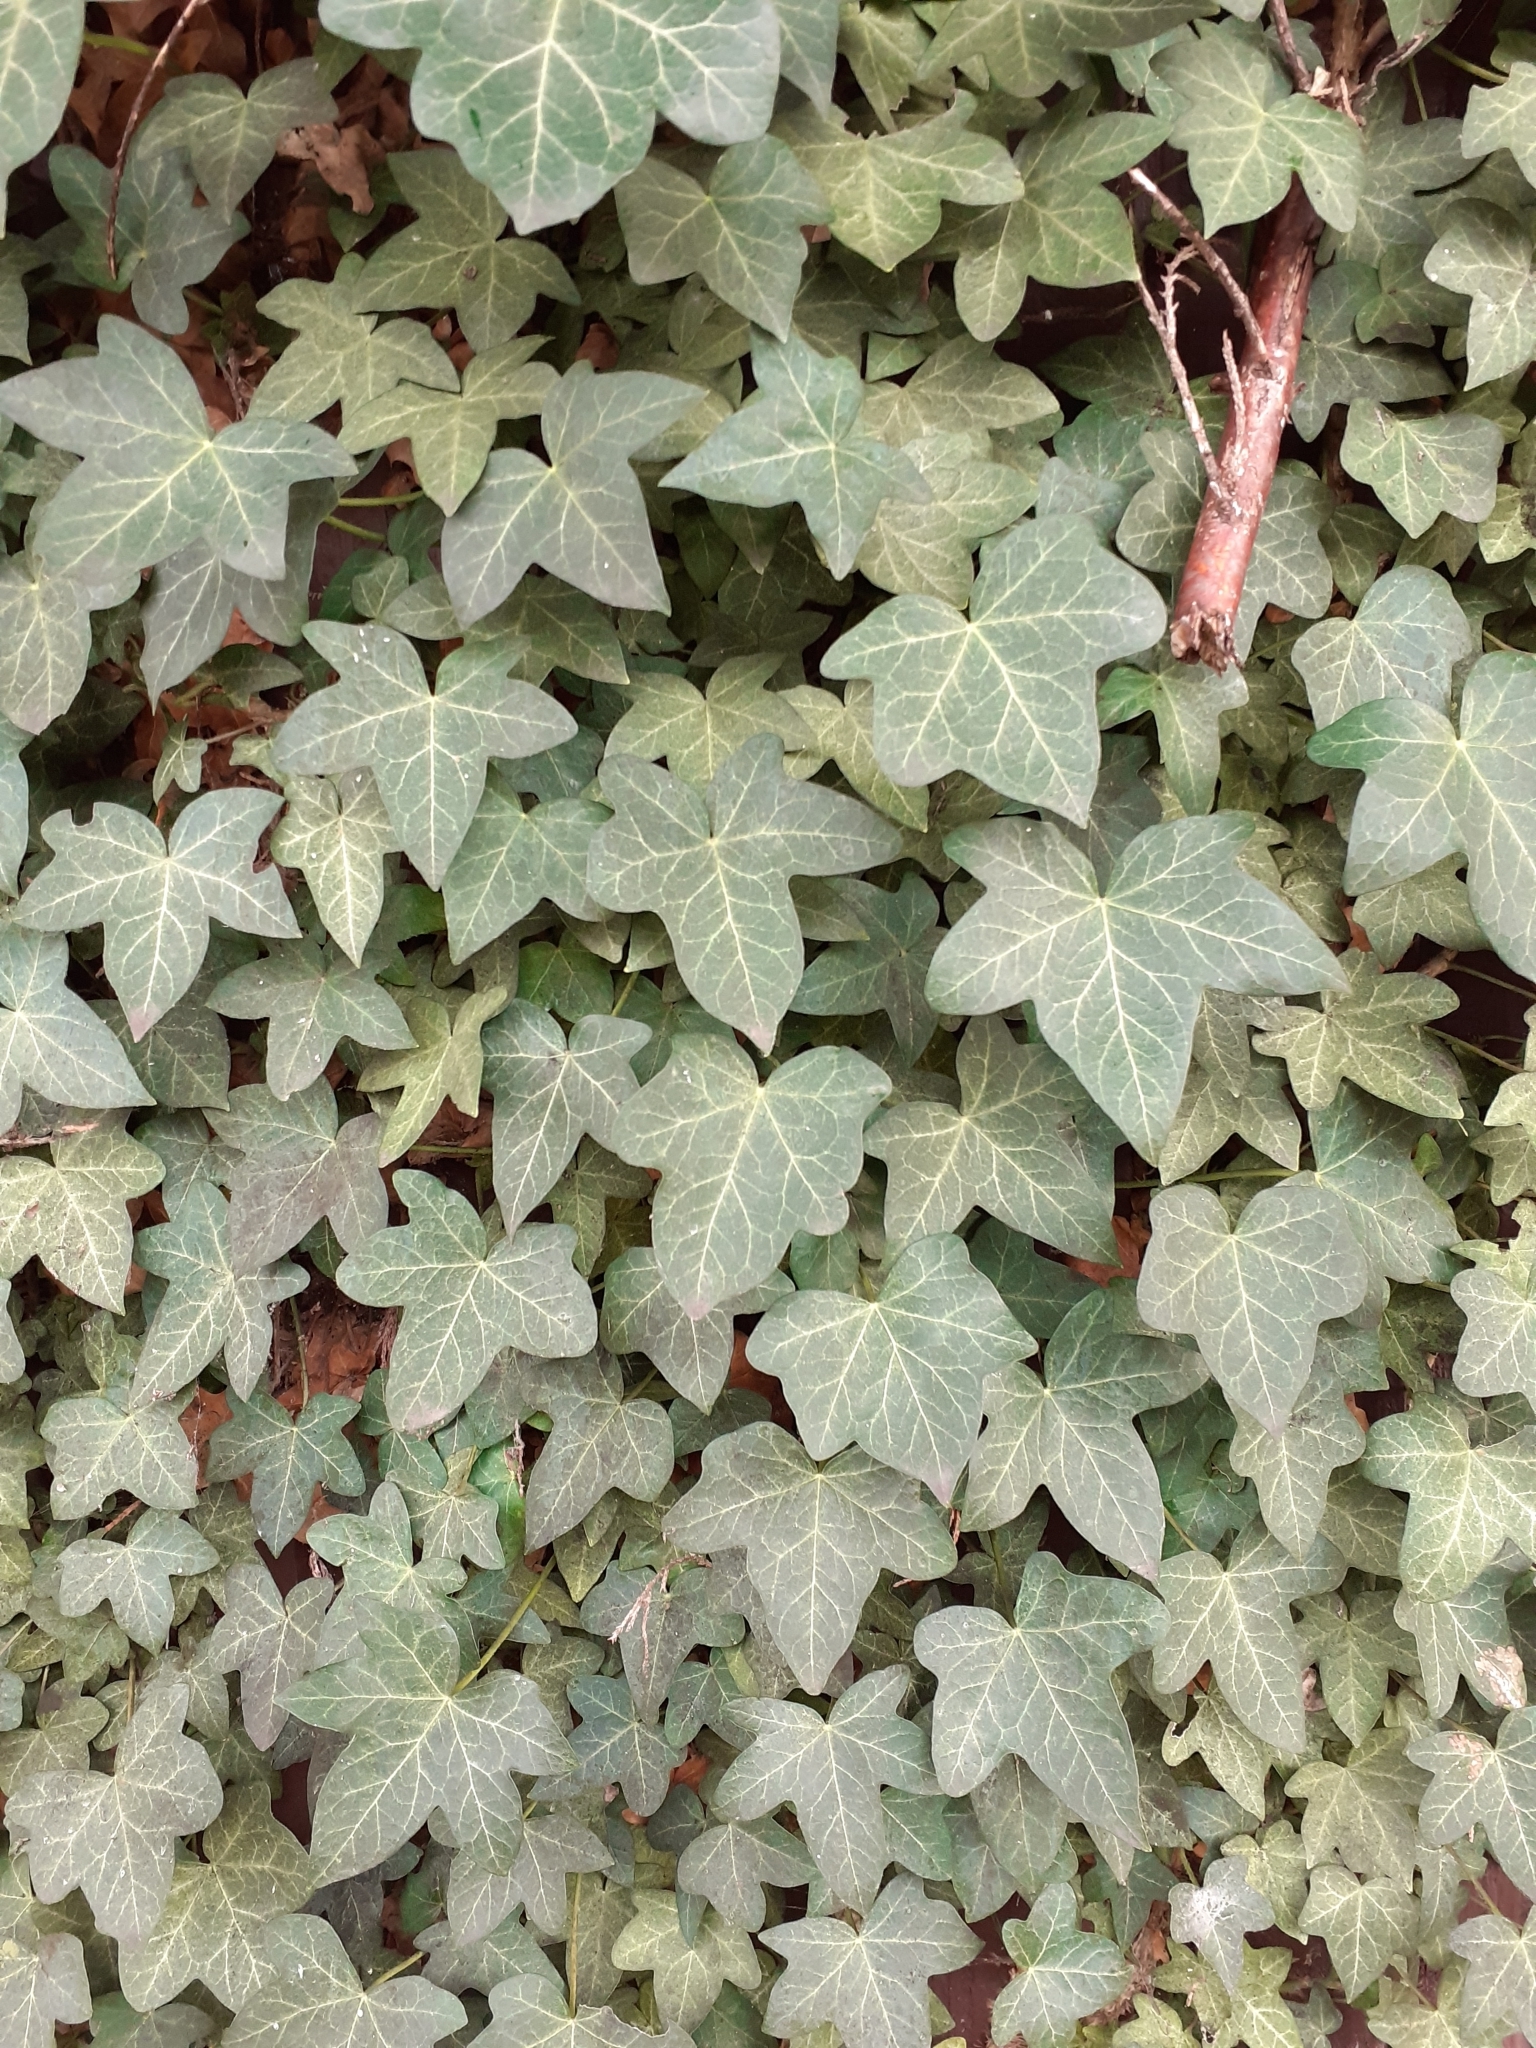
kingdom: Plantae
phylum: Tracheophyta
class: Magnoliopsida
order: Apiales
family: Araliaceae
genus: Hedera
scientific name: Hedera helix
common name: Ivy
